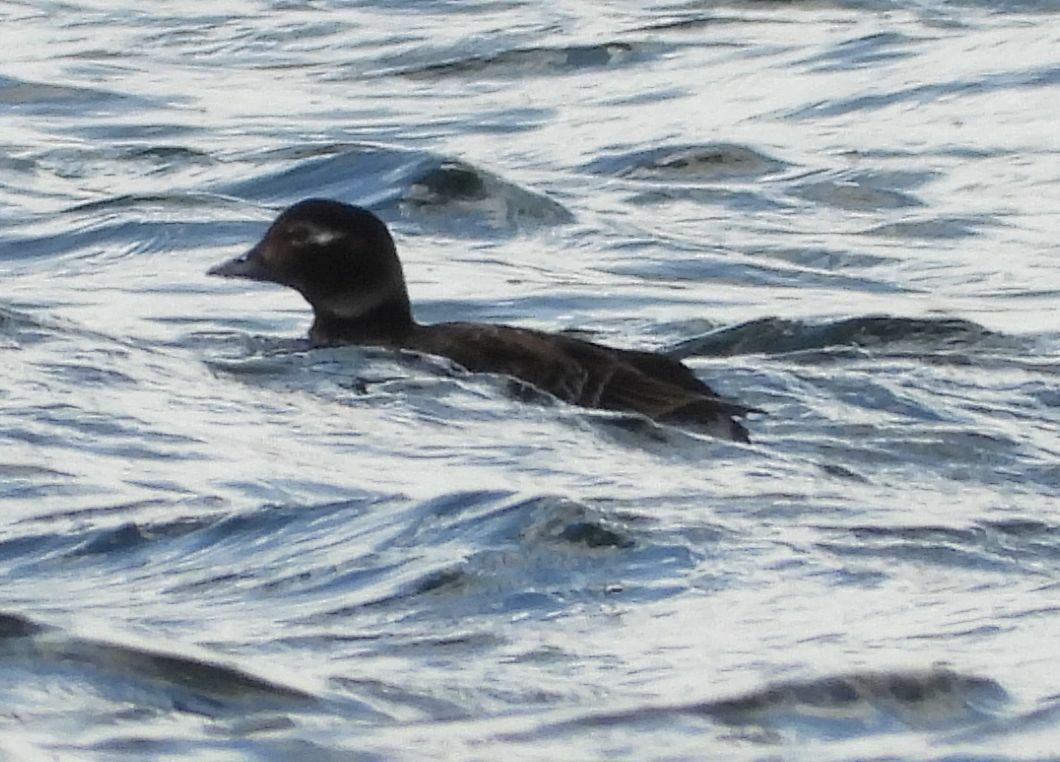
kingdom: Animalia
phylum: Chordata
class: Aves
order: Anseriformes
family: Anatidae
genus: Clangula
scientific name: Clangula hyemalis
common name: Long-tailed duck
